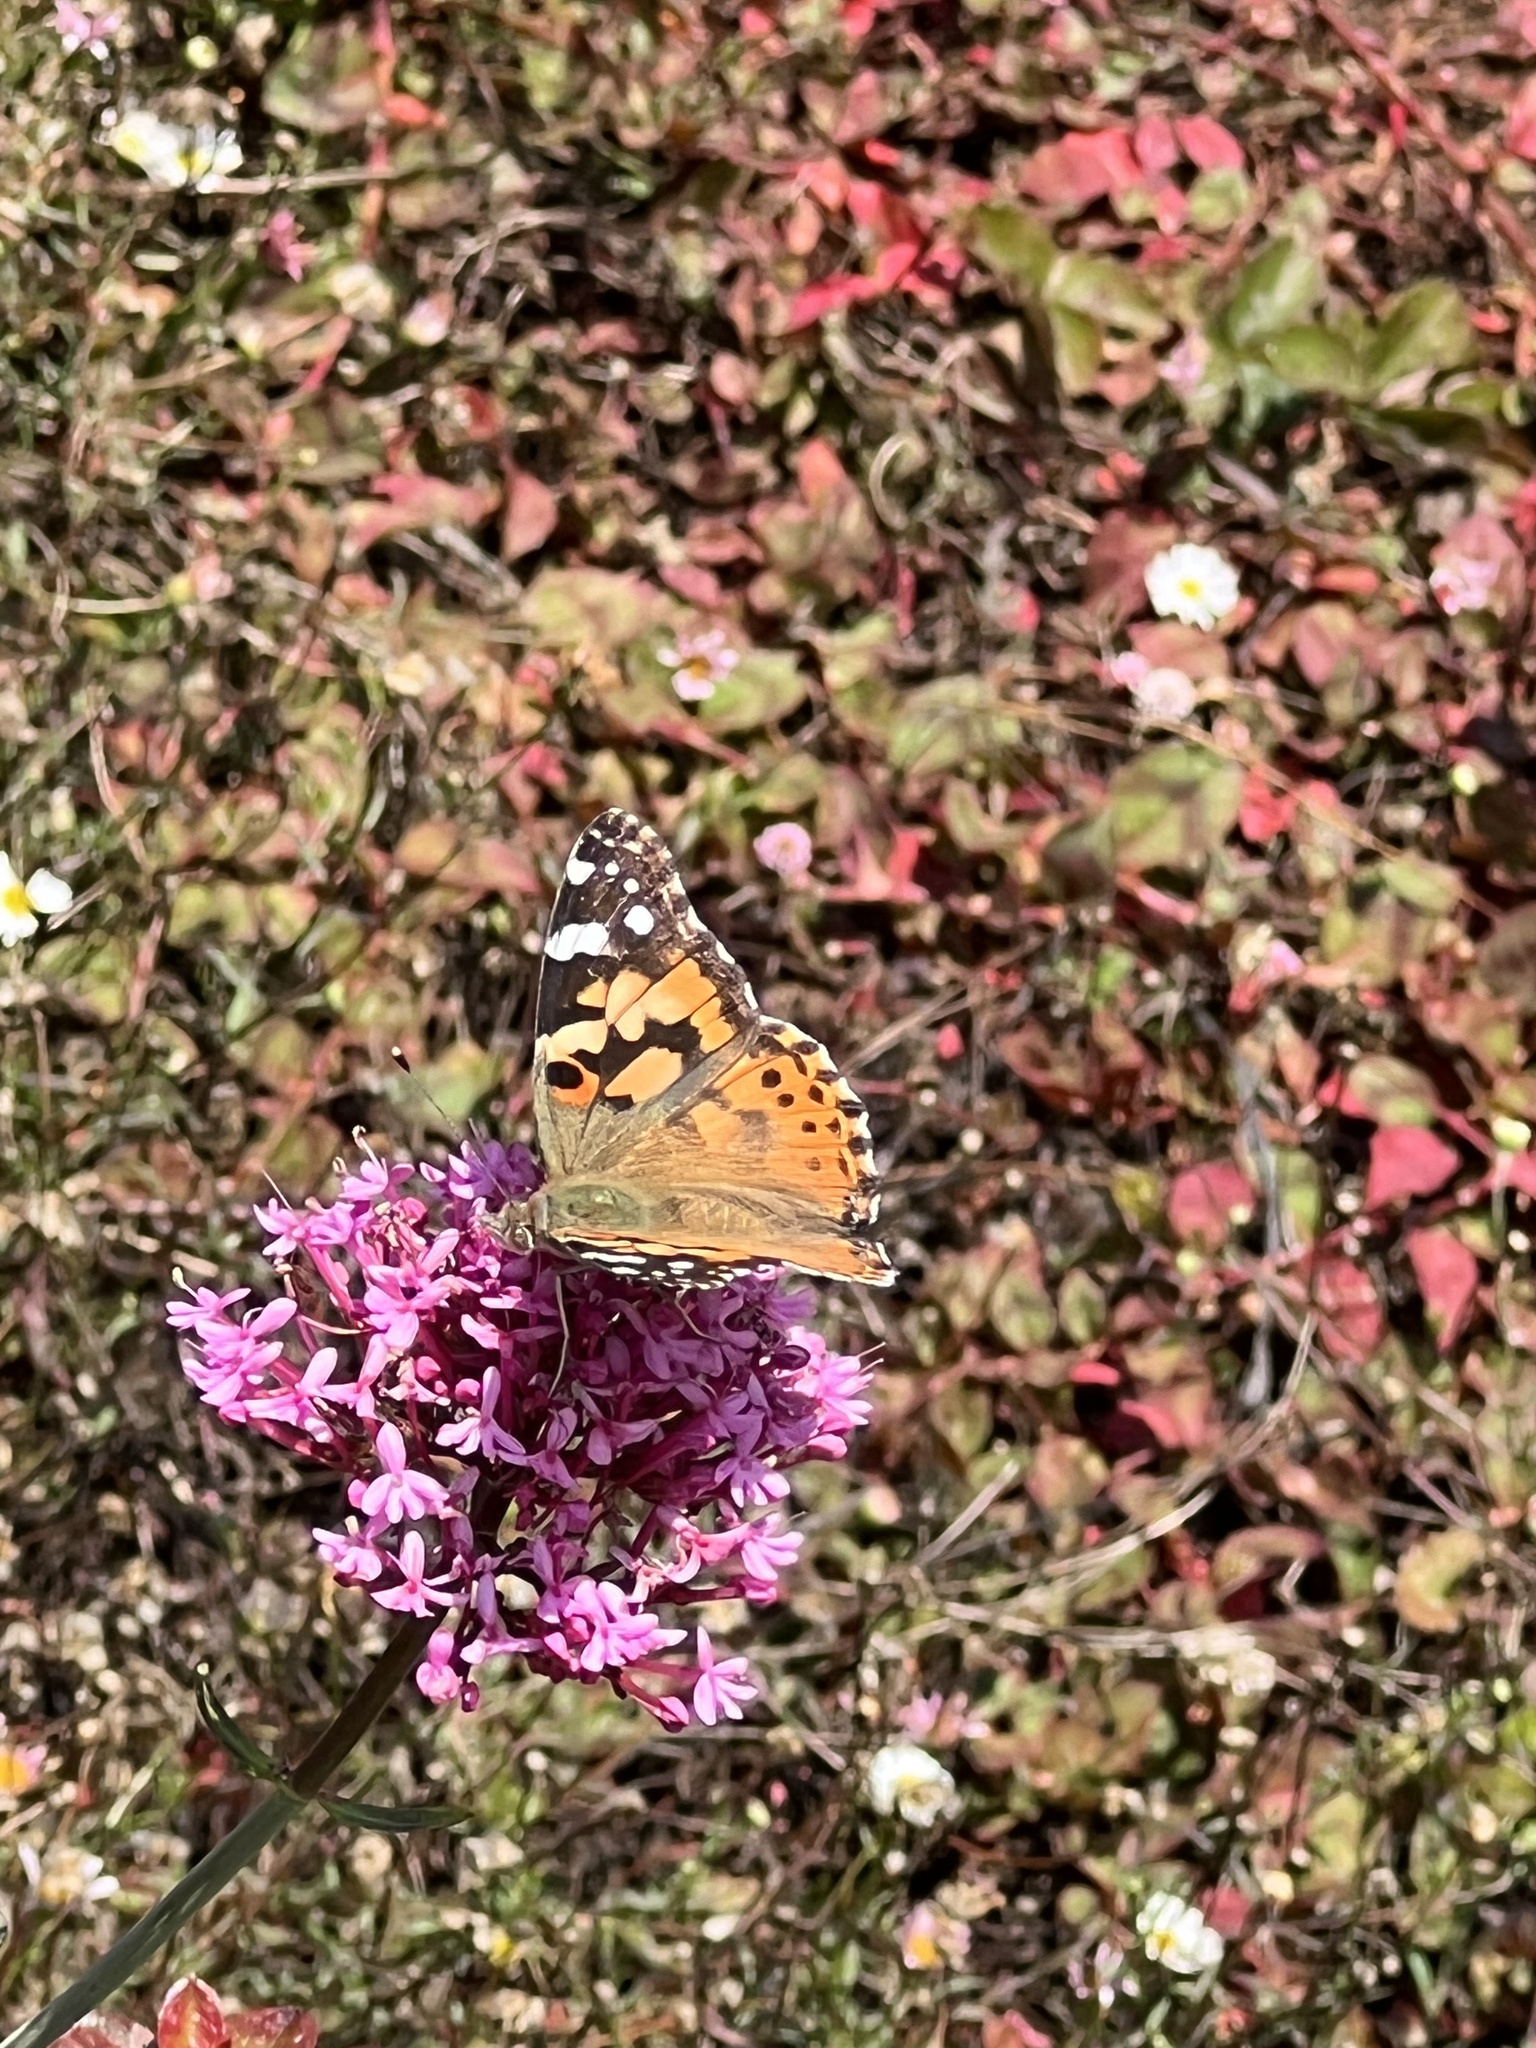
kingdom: Animalia
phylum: Arthropoda
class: Insecta
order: Lepidoptera
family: Nymphalidae
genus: Vanessa
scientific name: Vanessa cardui
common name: Painted lady
